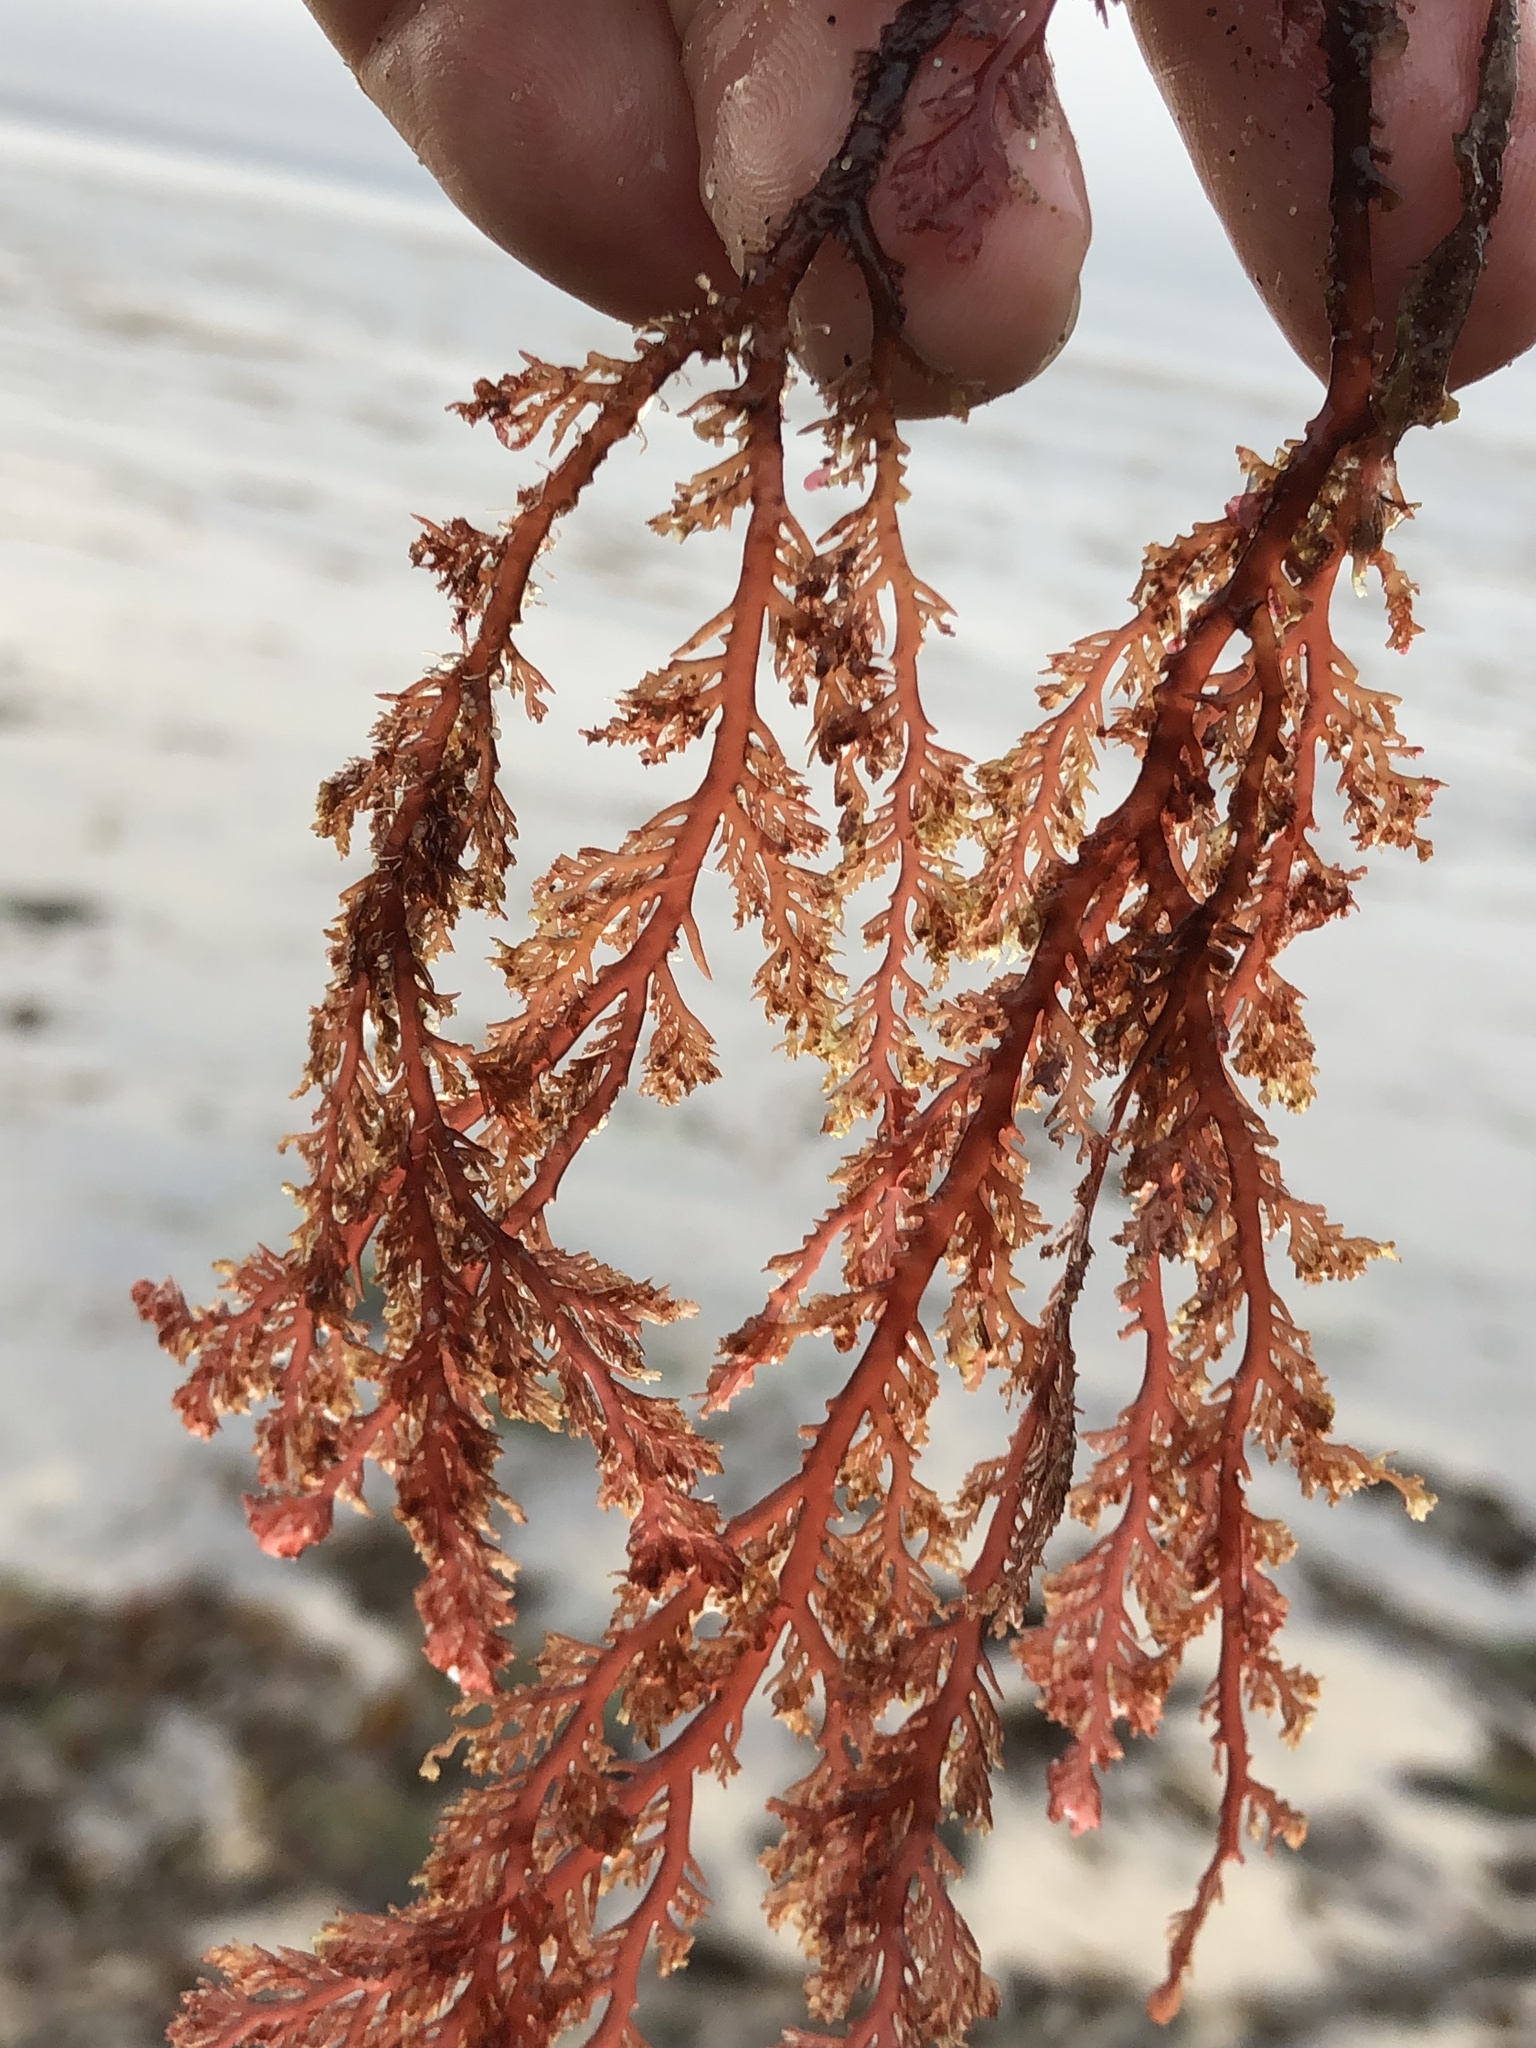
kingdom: Plantae
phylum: Rhodophyta
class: Florideophyceae
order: Plocamiales
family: Plocamiaceae
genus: Plocamium
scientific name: Plocamium cartilagineum
